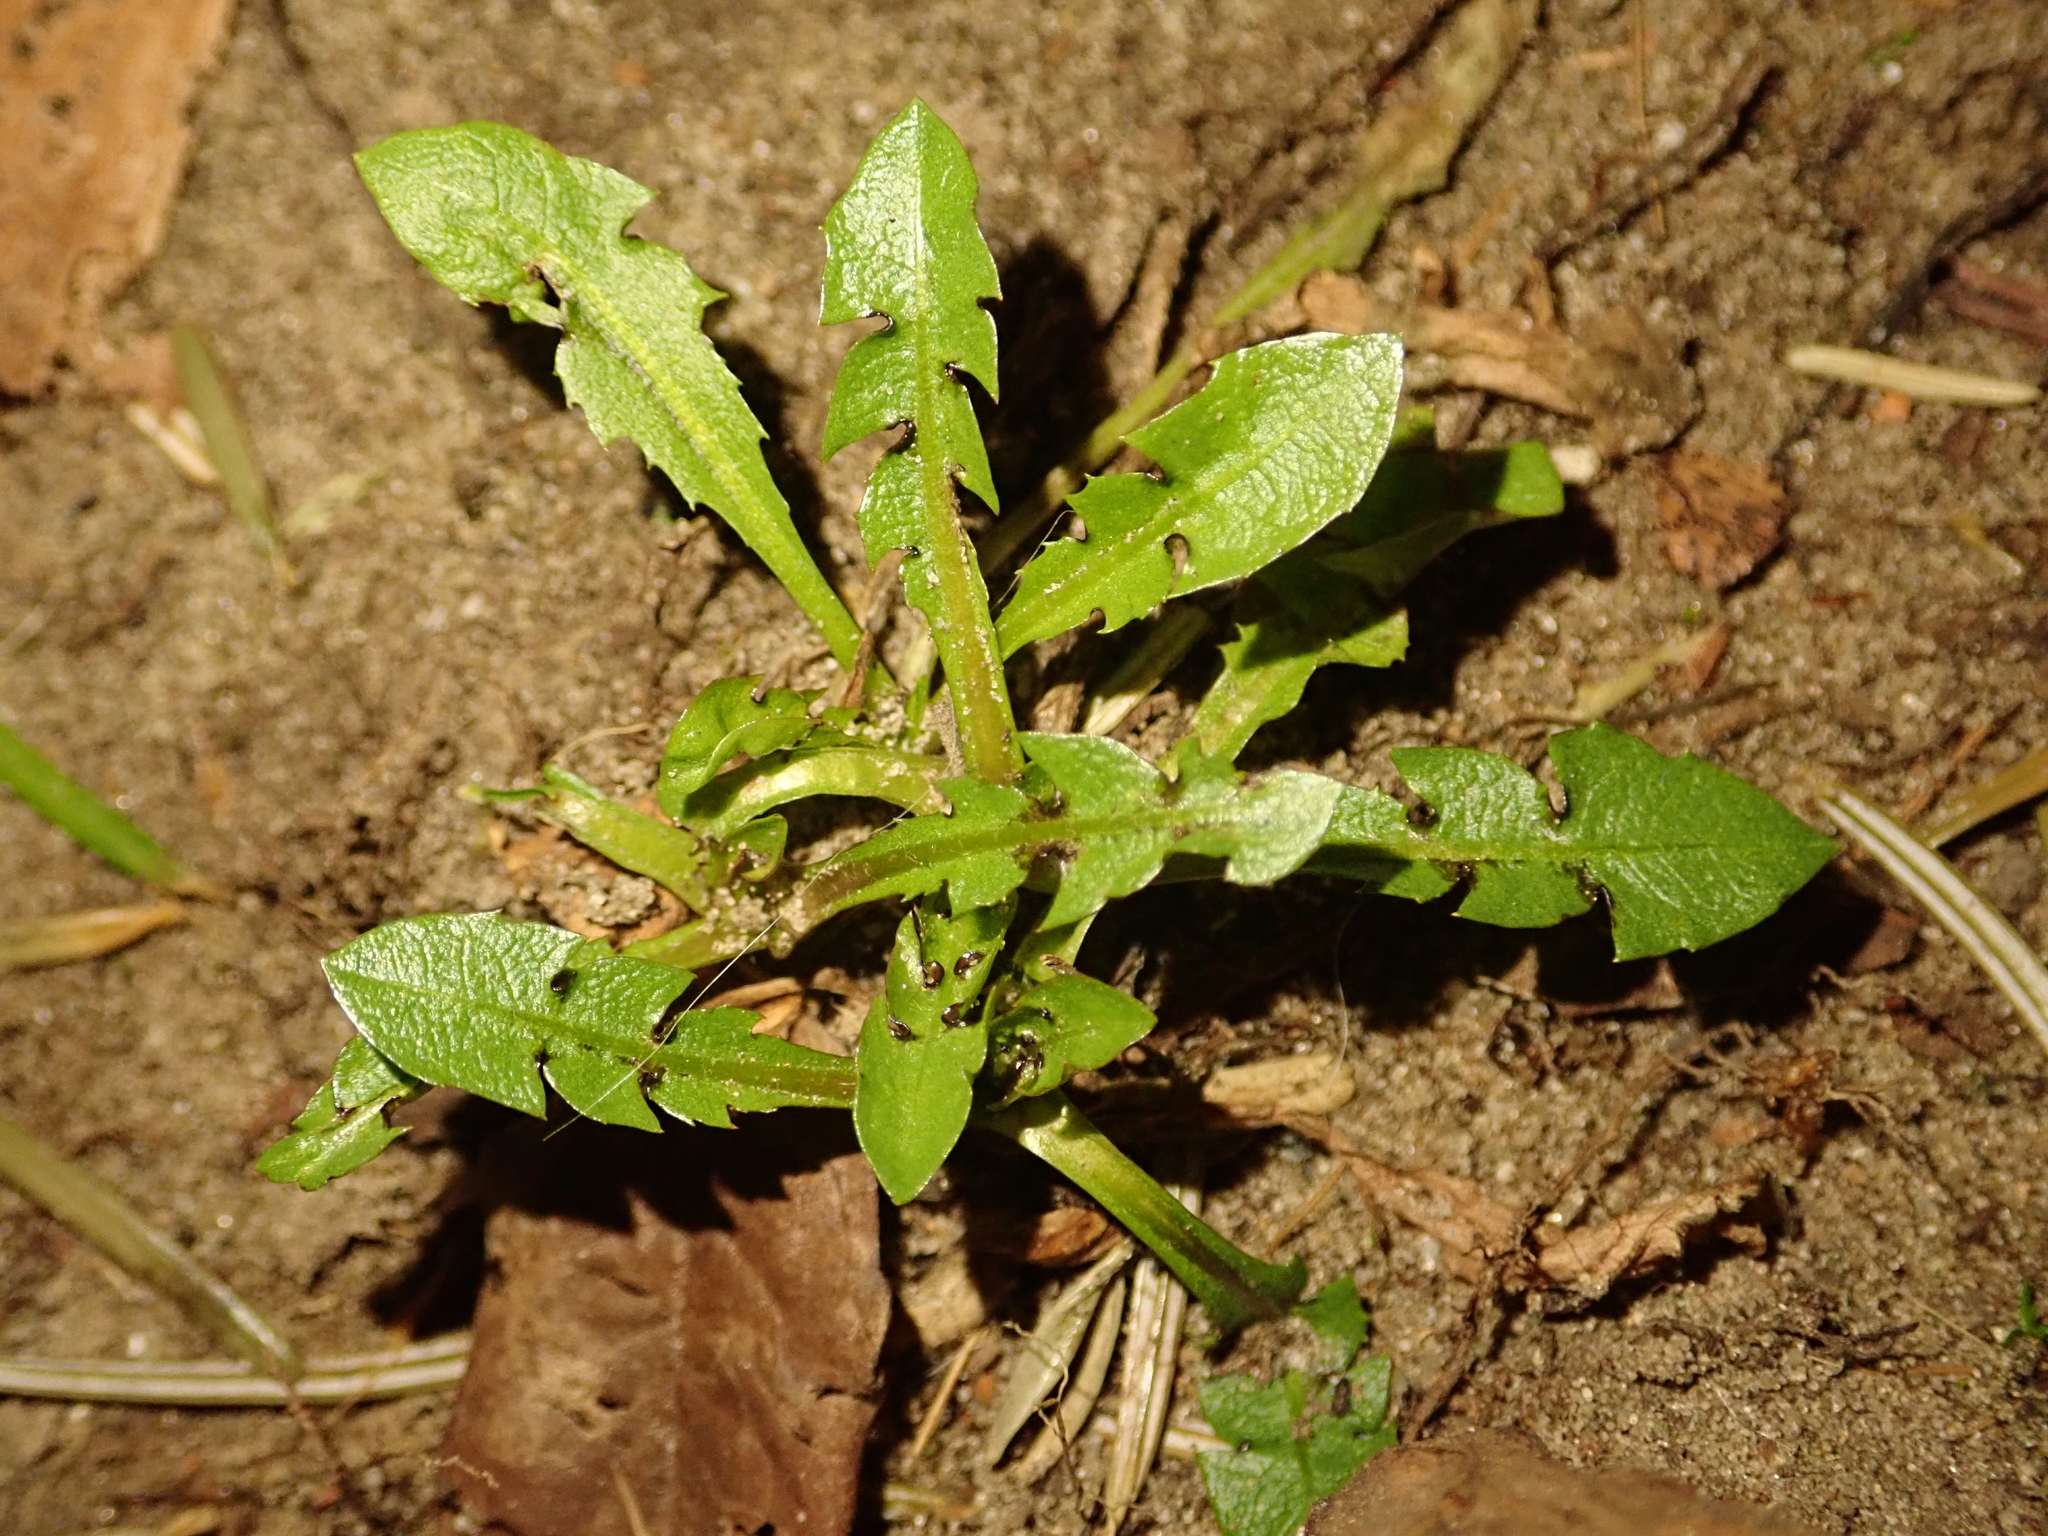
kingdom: Plantae
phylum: Tracheophyta
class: Magnoliopsida
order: Asterales
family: Asteraceae
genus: Taraxacum
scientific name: Taraxacum officinale
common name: Common dandelion
